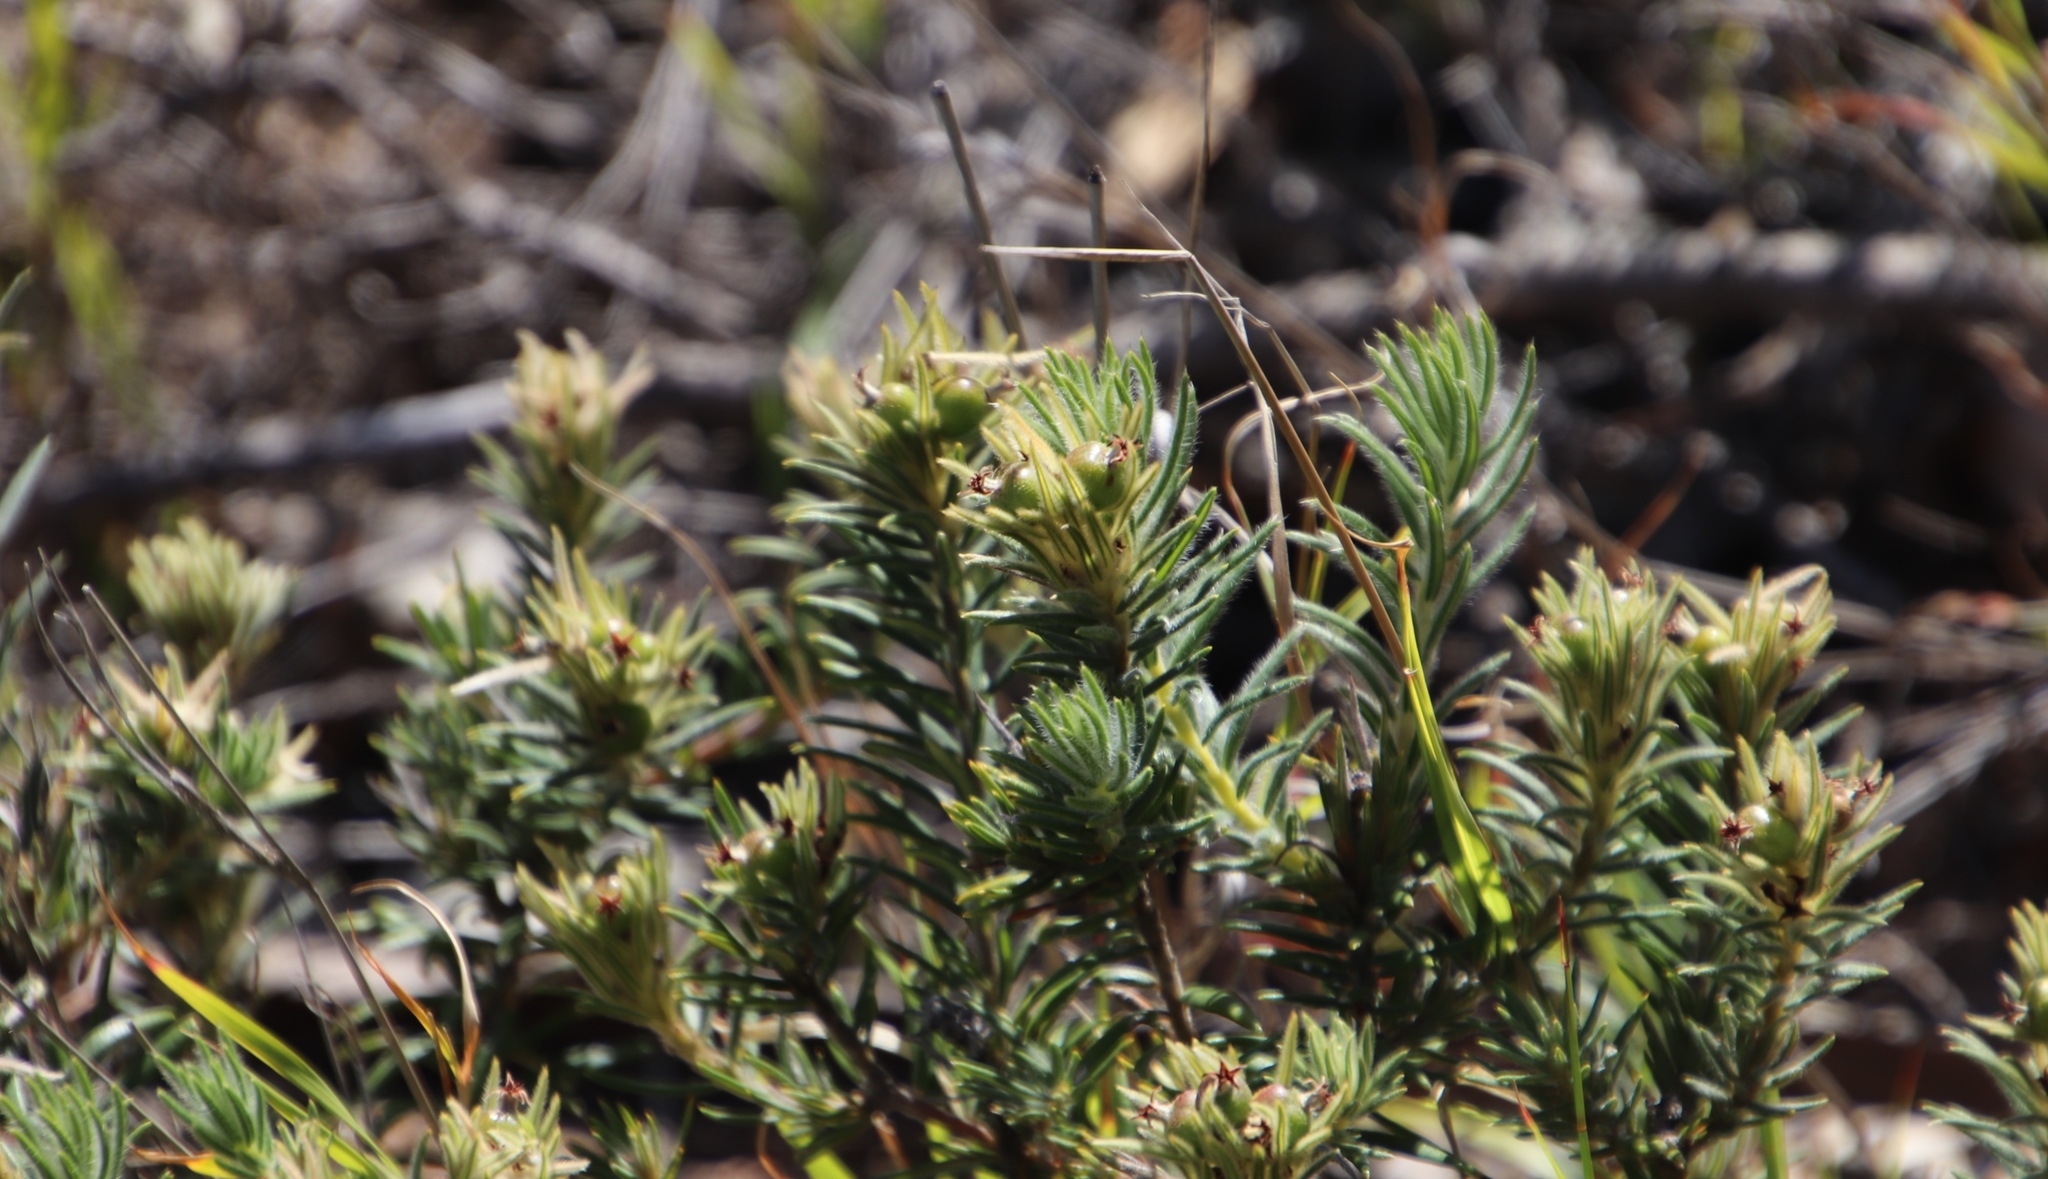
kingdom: Plantae
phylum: Tracheophyta
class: Magnoliopsida
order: Rosales
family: Rhamnaceae
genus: Phylica
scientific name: Phylica pubescens
